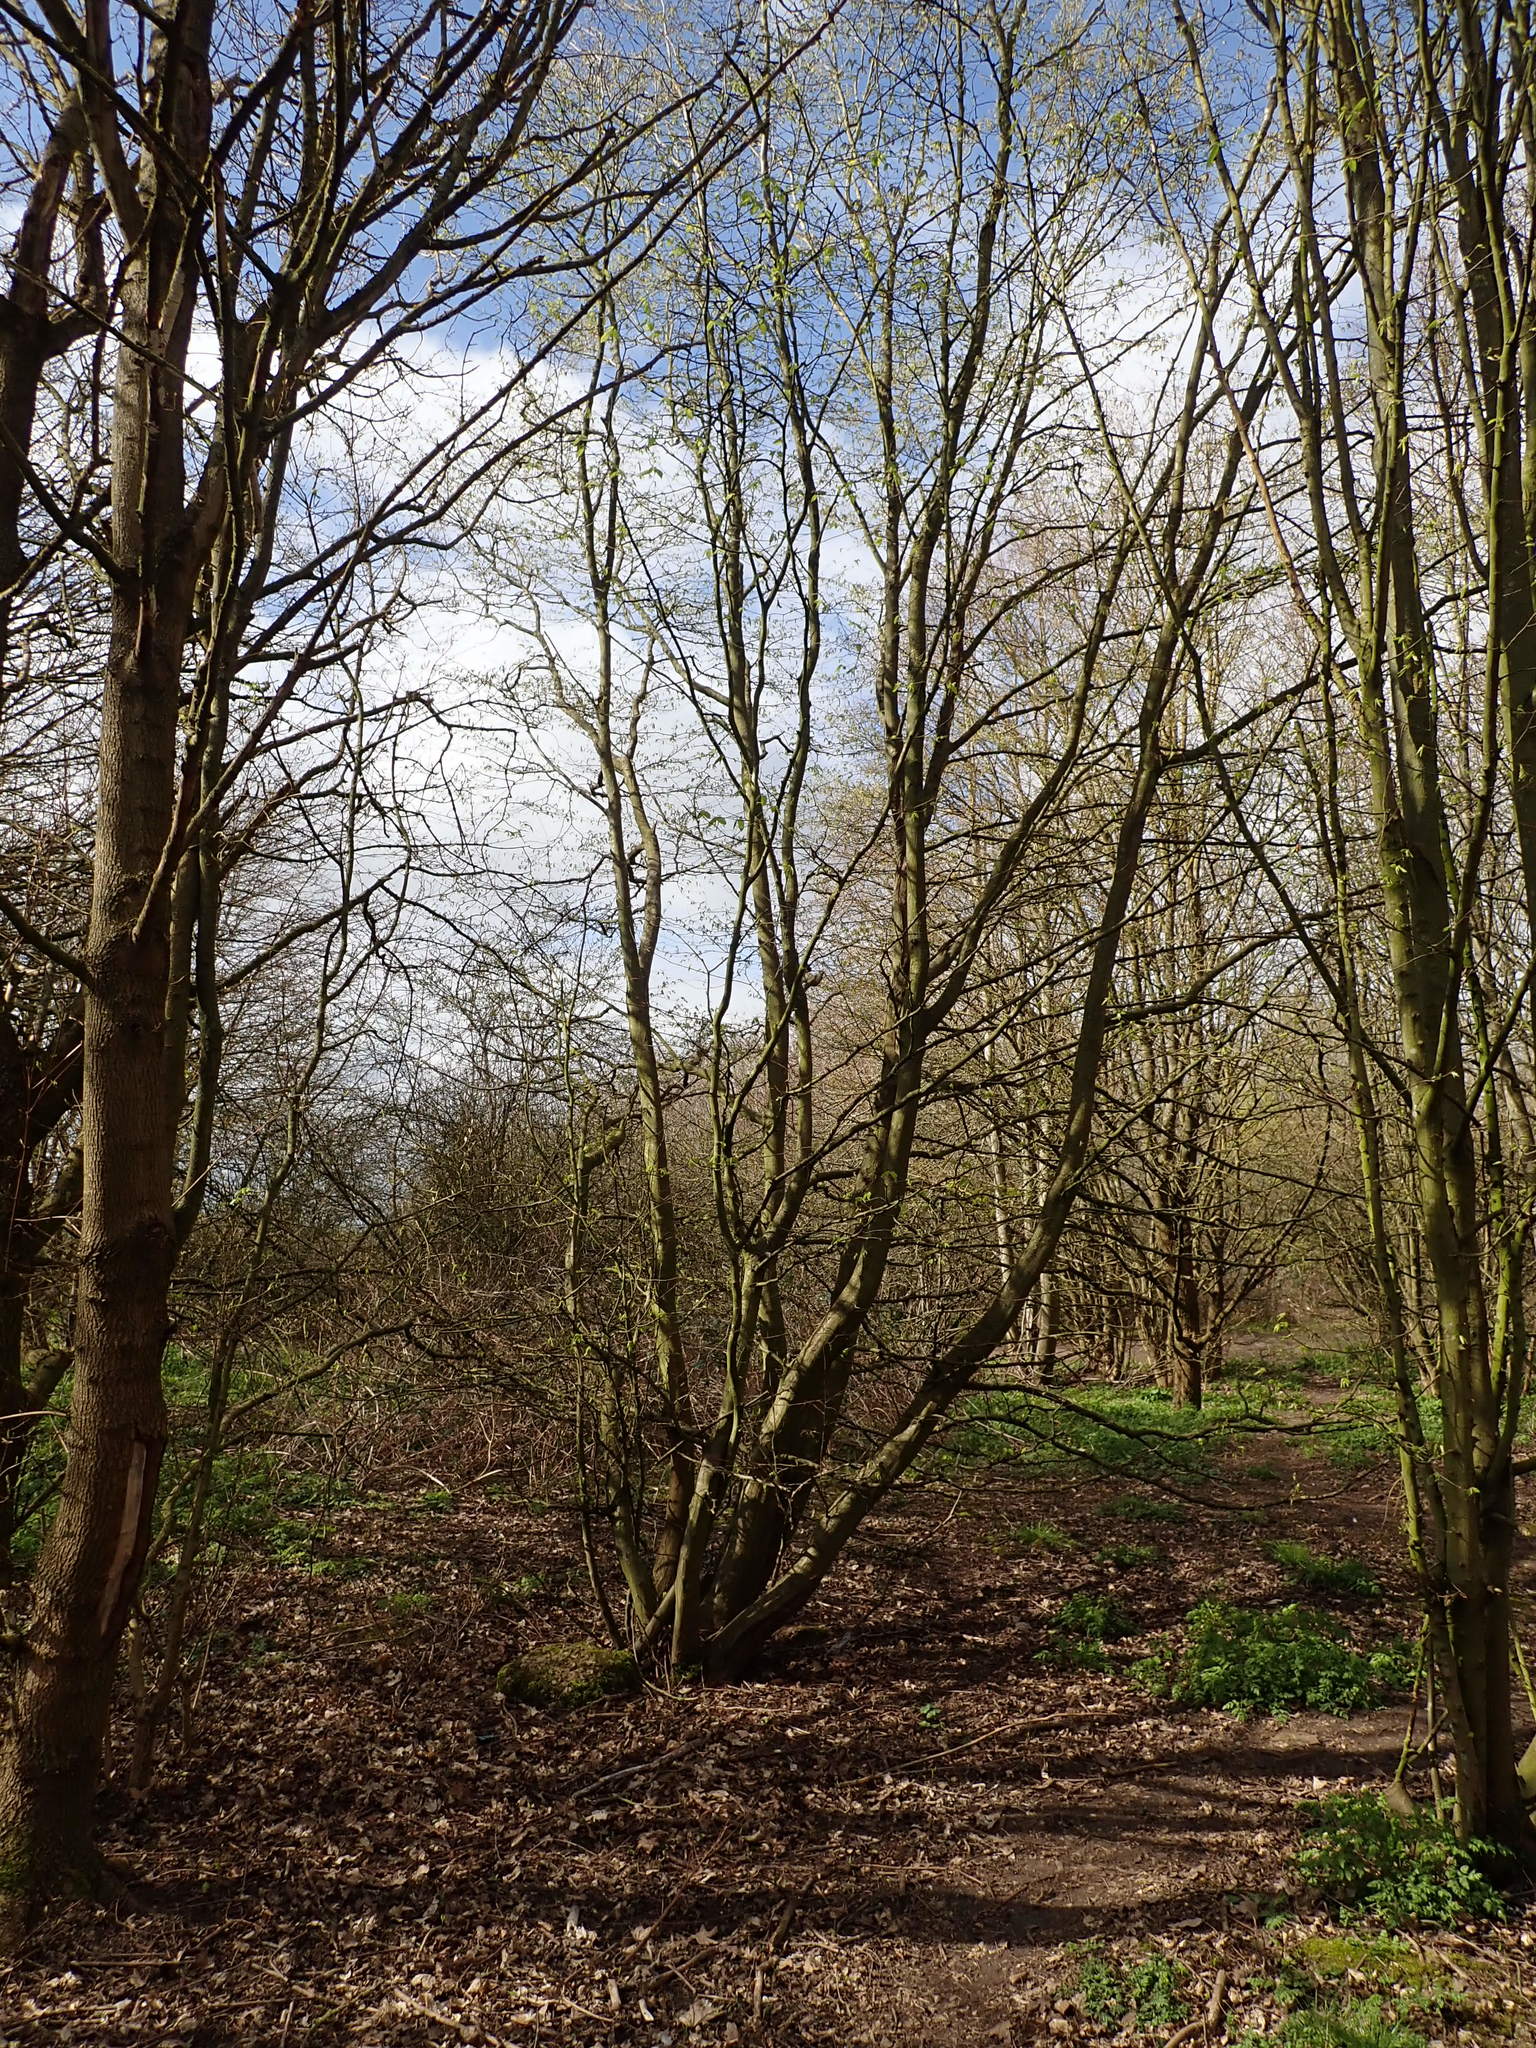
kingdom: Plantae
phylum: Tracheophyta
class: Magnoliopsida
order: Fagales
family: Betulaceae
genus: Carpinus
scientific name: Carpinus betulus
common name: Hornbeam
